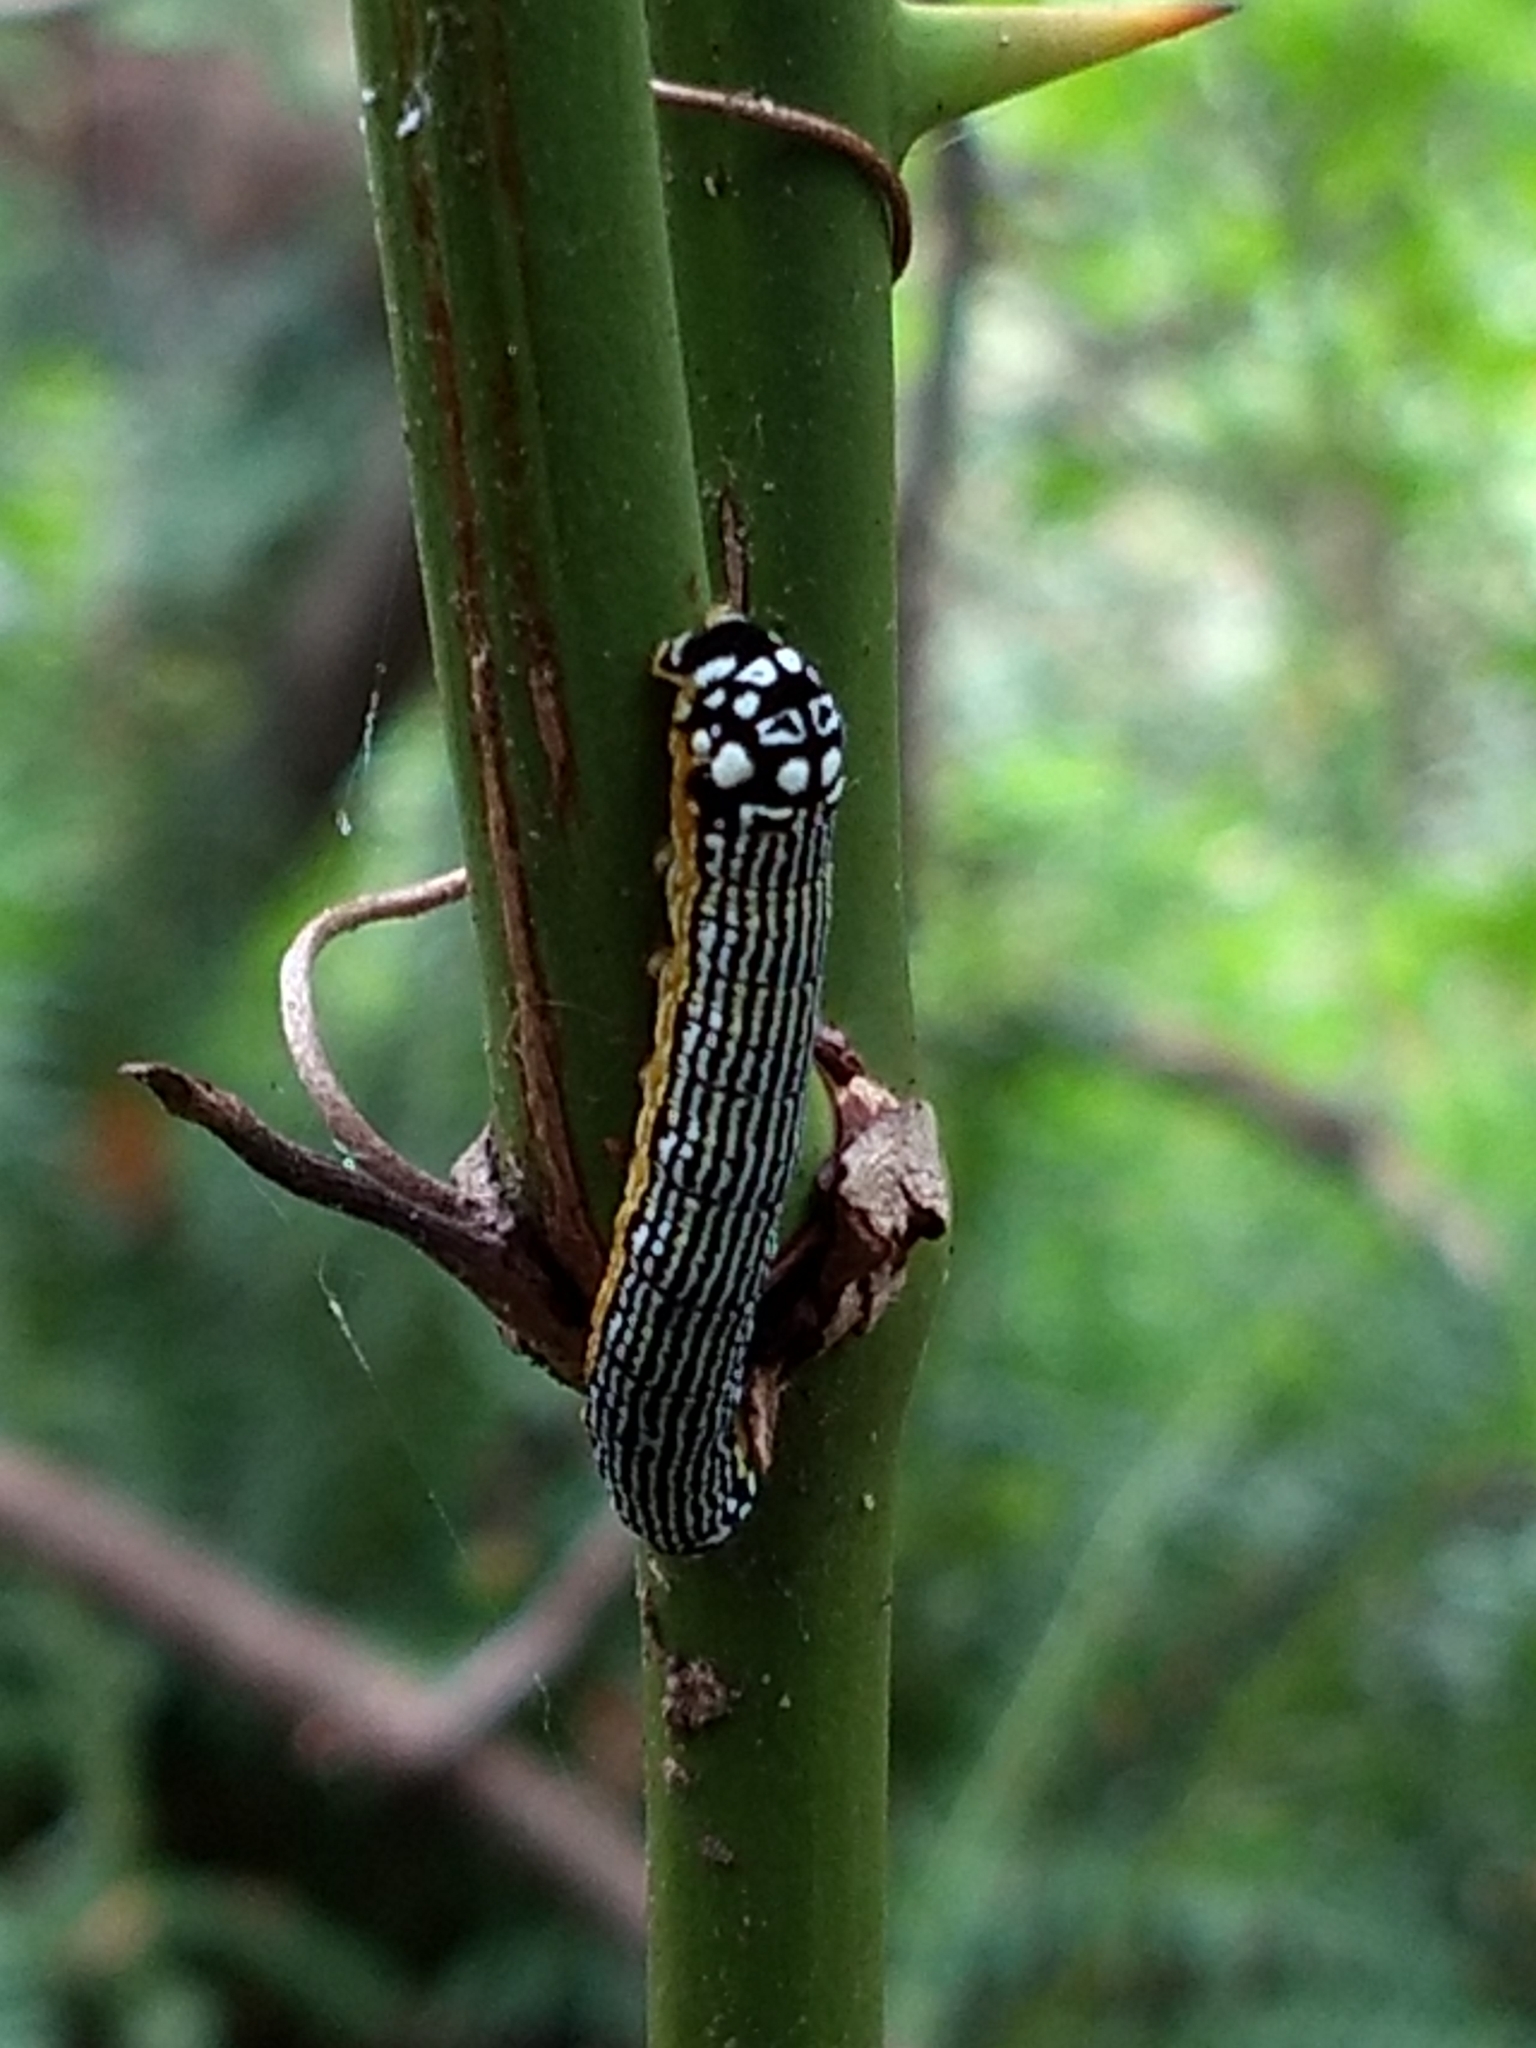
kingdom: Animalia
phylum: Arthropoda
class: Insecta
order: Lepidoptera
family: Noctuidae
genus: Phosphila
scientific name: Phosphila turbulenta
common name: Turbulent phosphila moth
